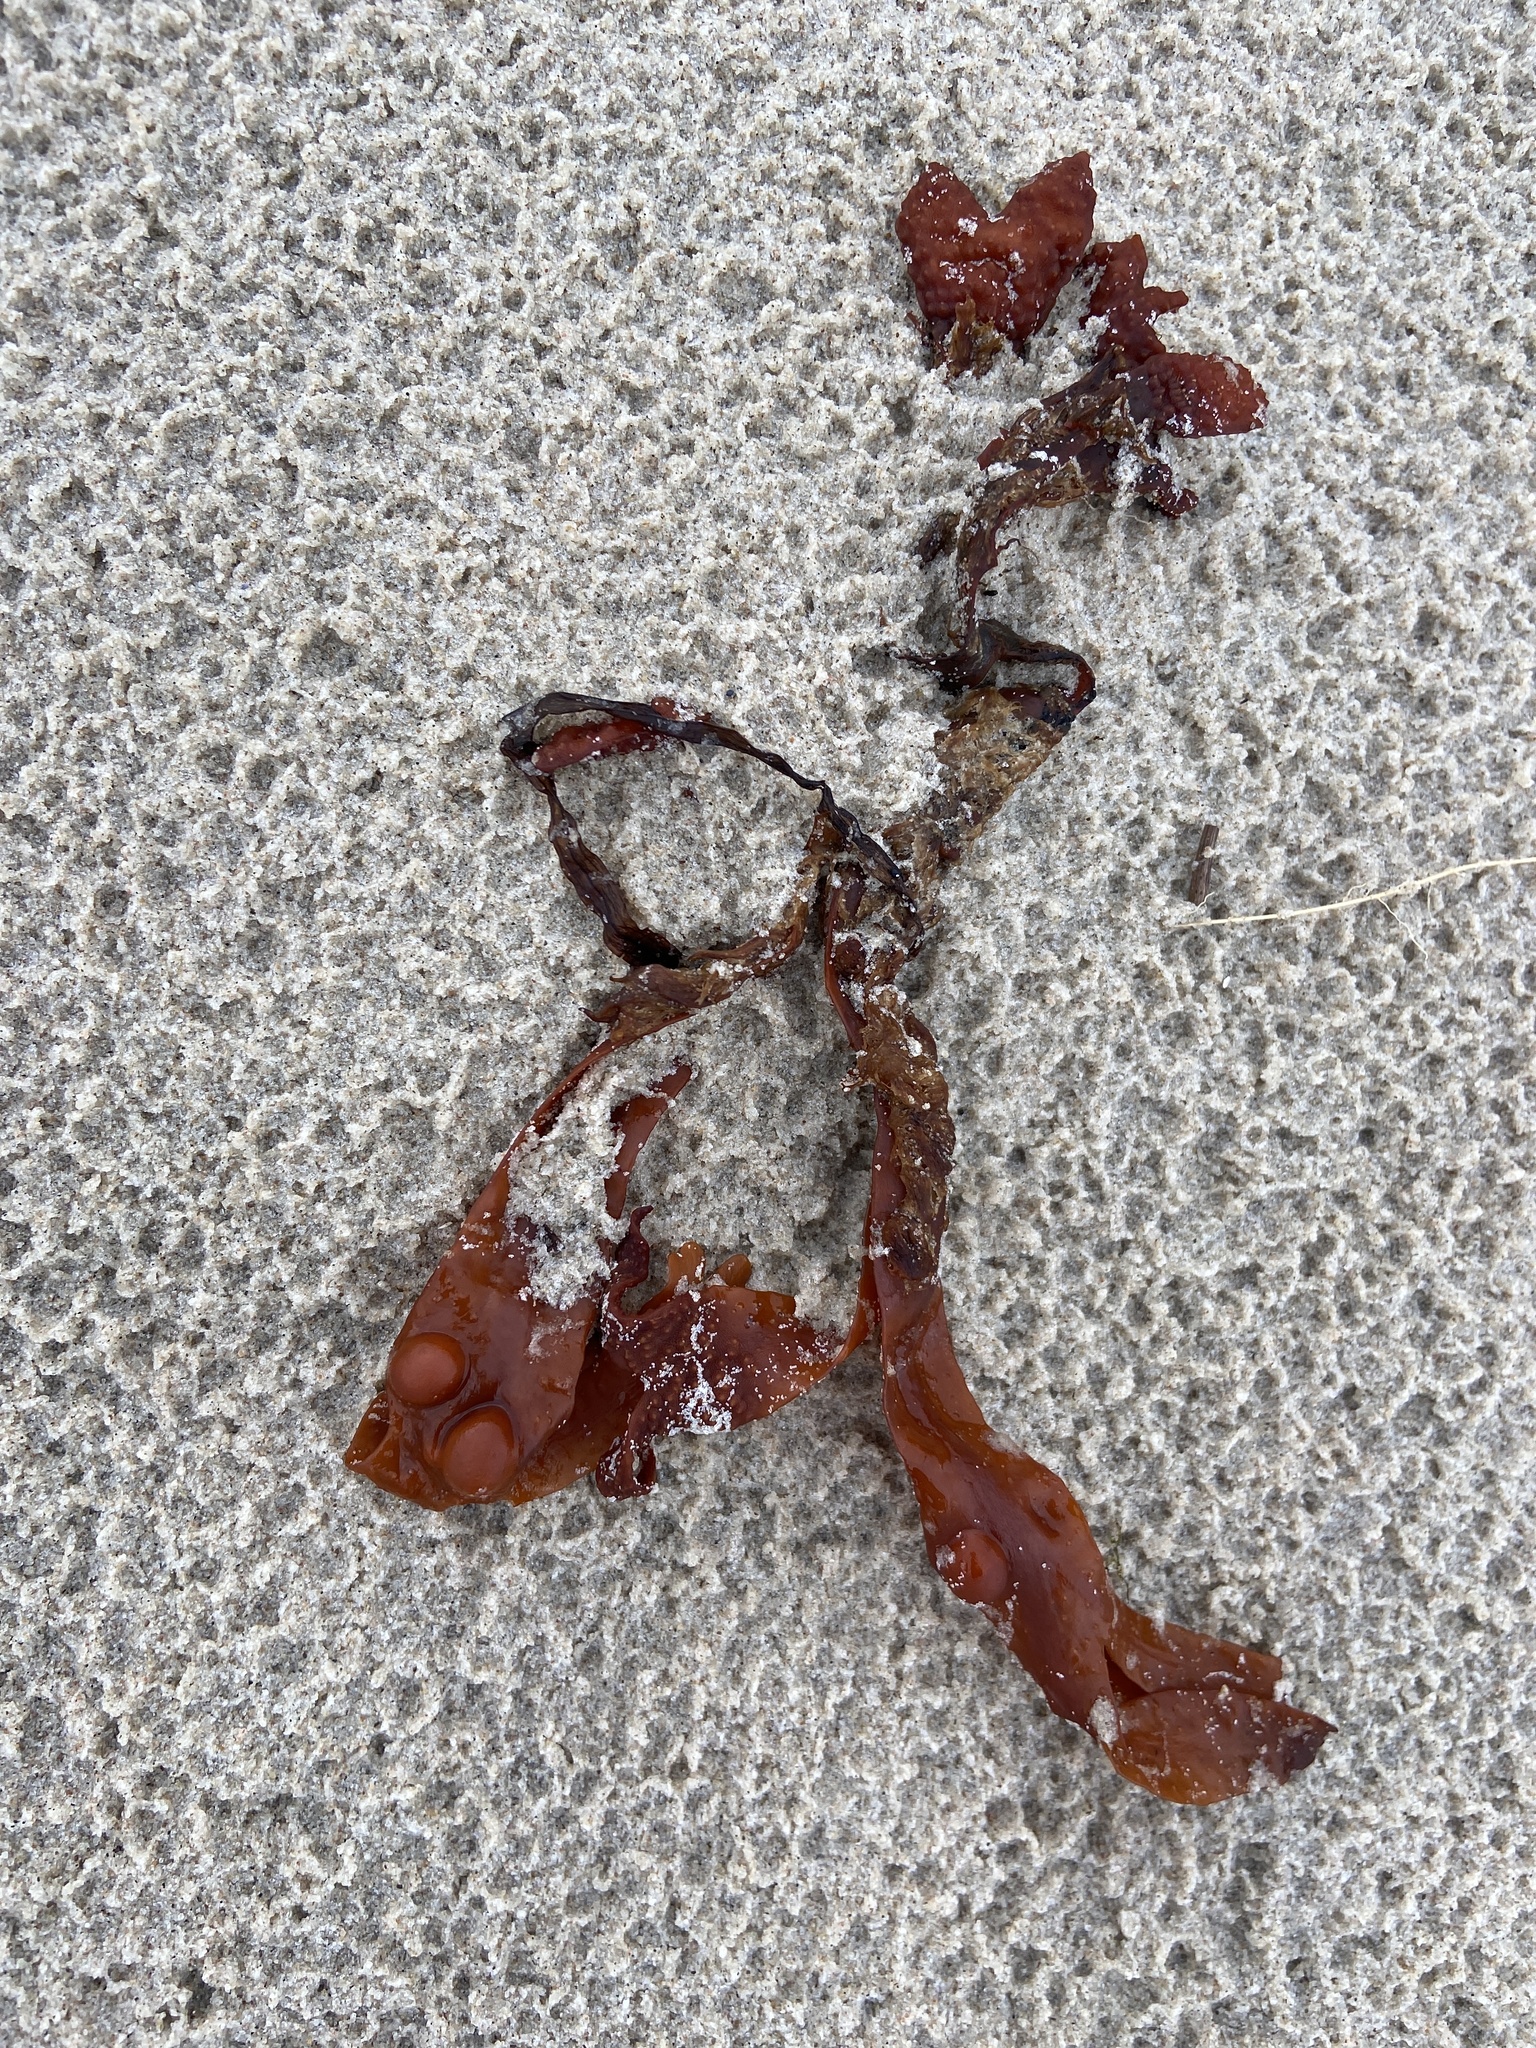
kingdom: Chromista
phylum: Ochrophyta
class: Phaeophyceae
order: Fucales
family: Fucaceae
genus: Fucus
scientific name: Fucus vesiculosus
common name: Bladder wrack
